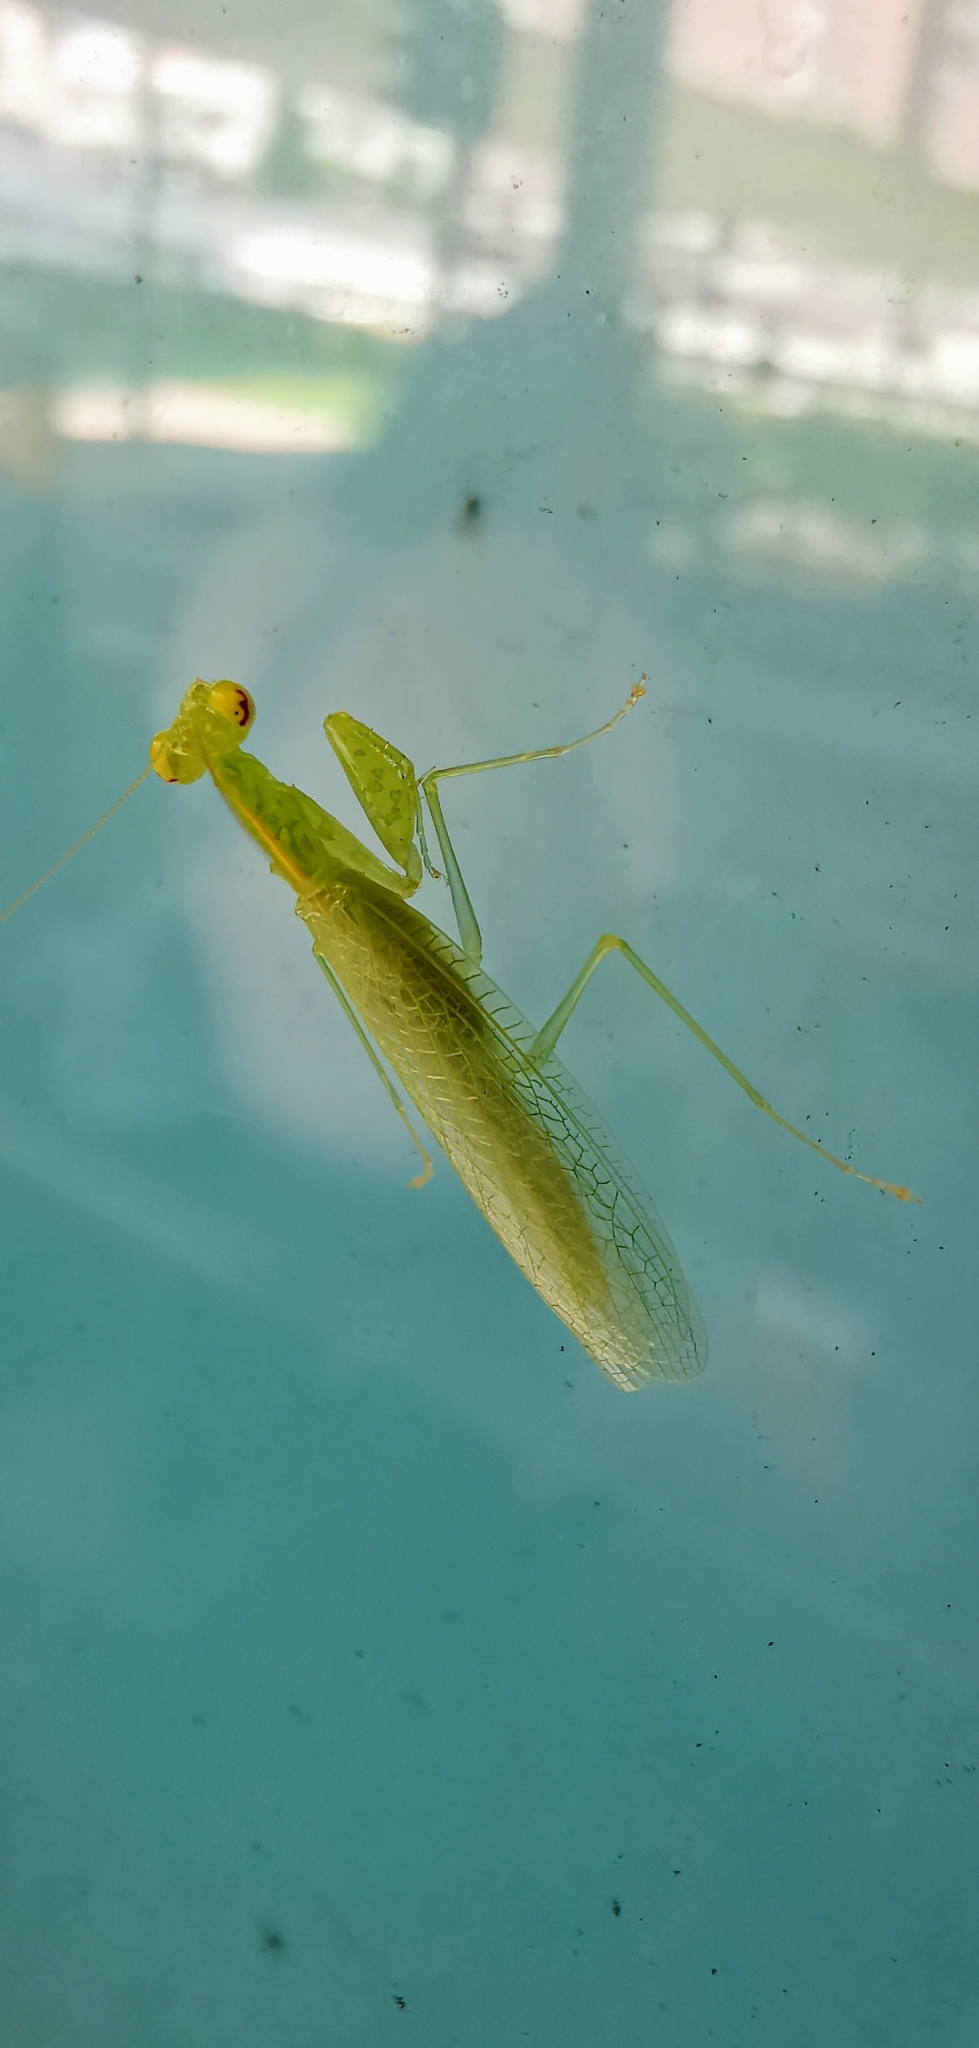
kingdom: Animalia
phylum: Arthropoda
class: Insecta
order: Mantodea
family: Nanomantidae
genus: Tropidomantis
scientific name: Tropidomantis tenera
